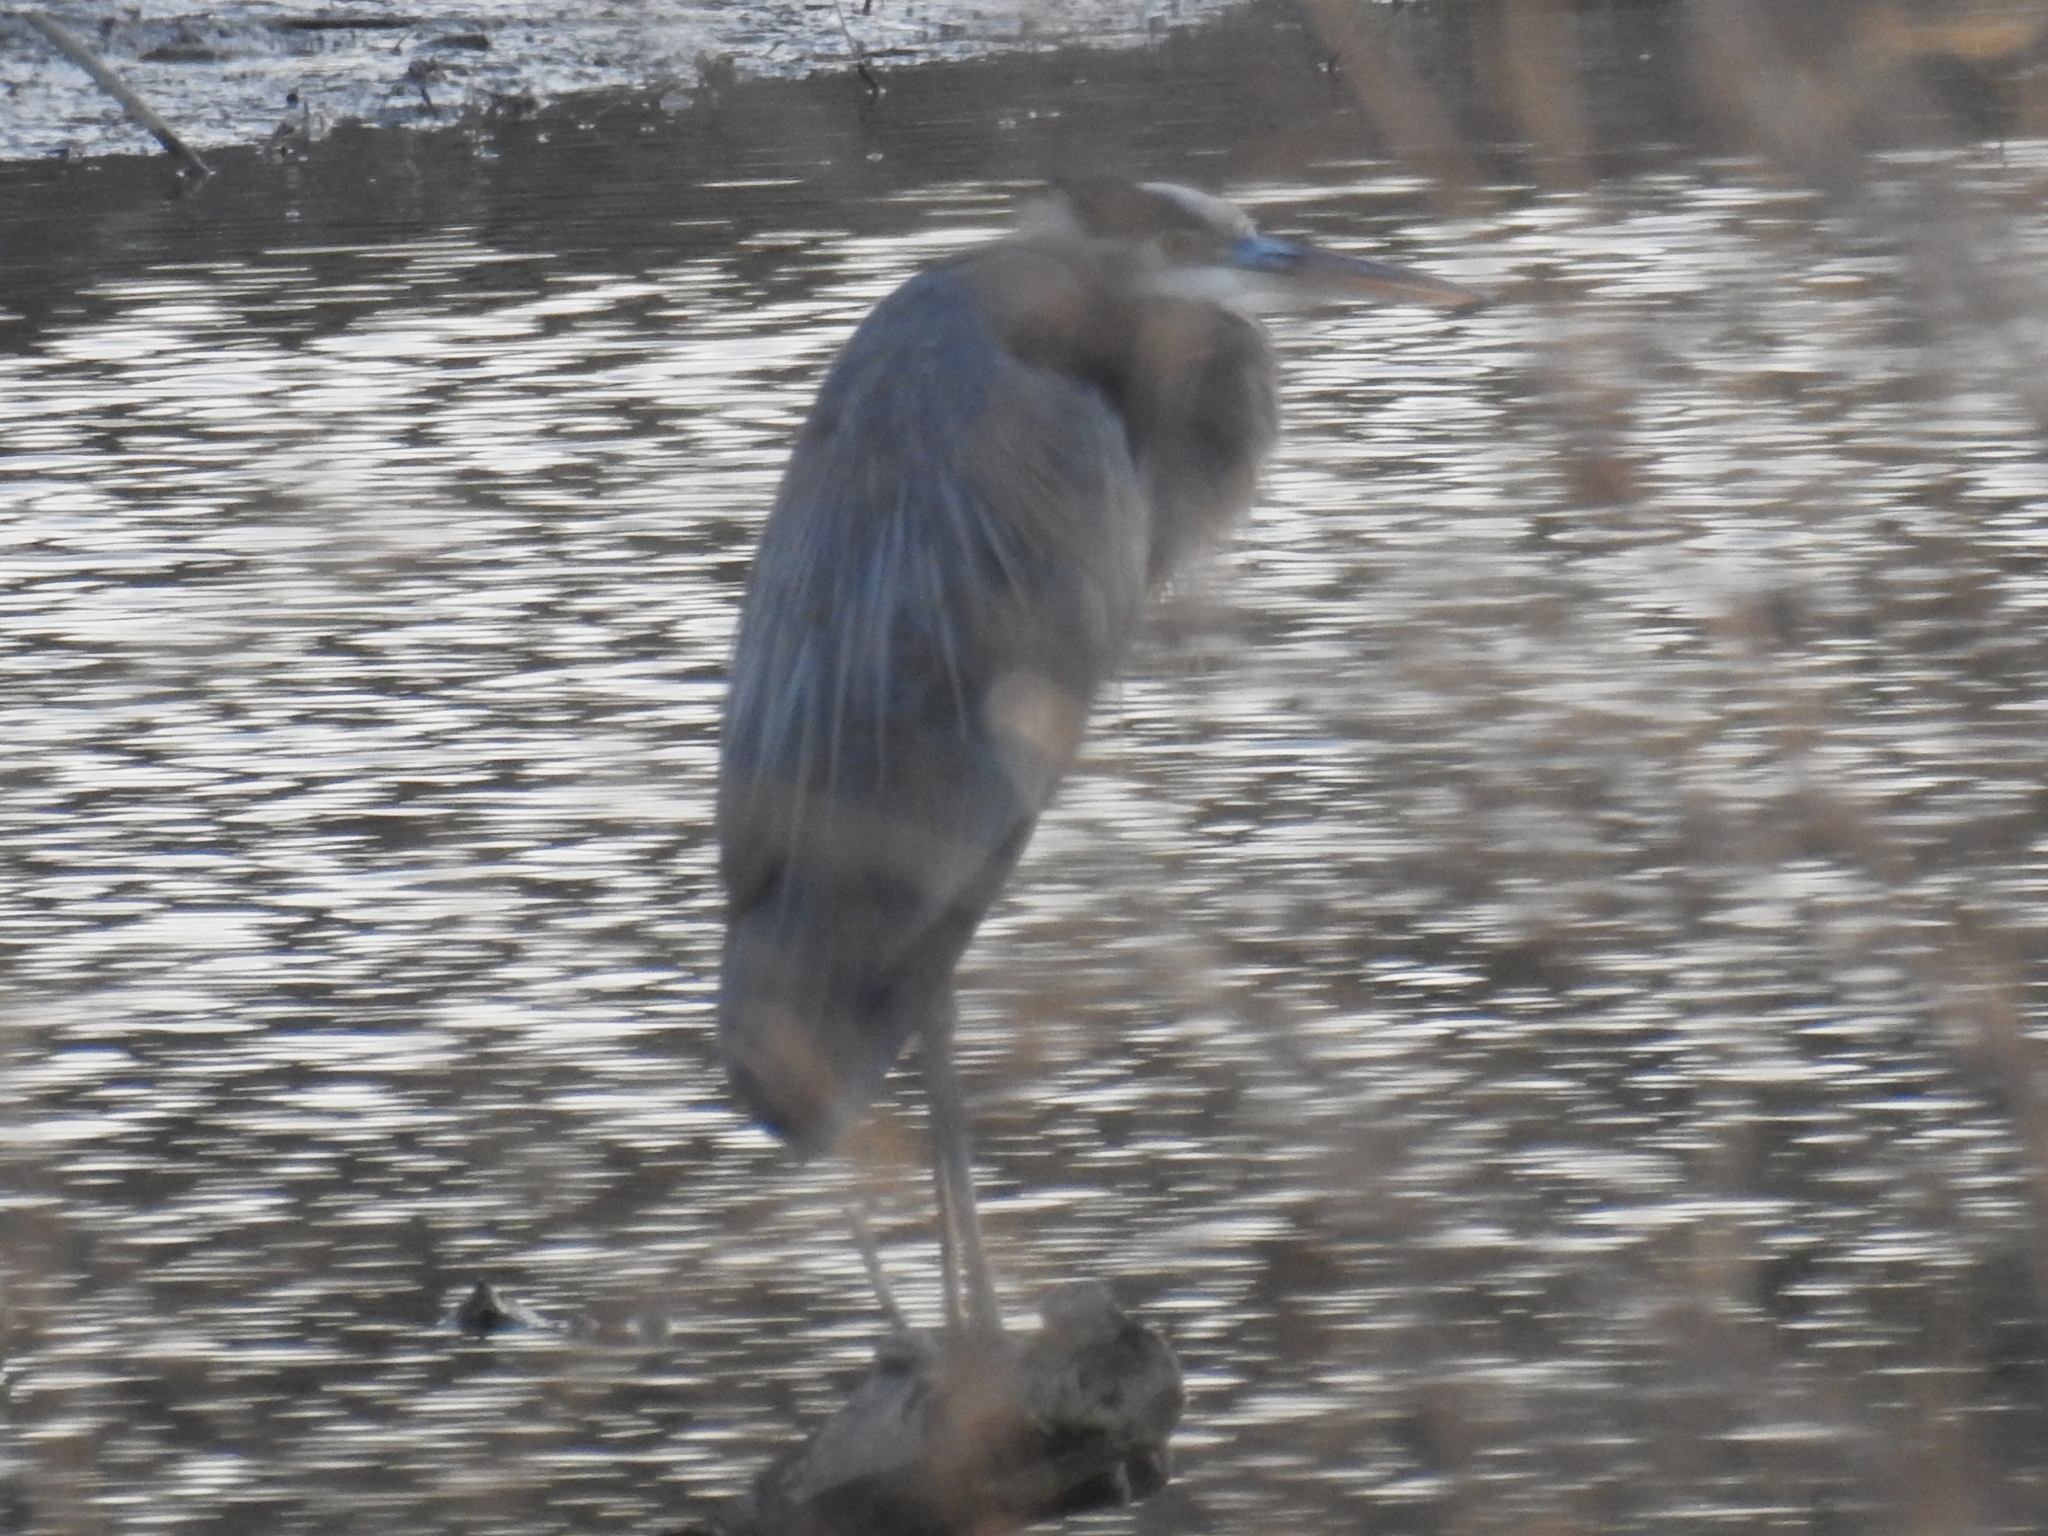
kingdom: Animalia
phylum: Chordata
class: Aves
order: Pelecaniformes
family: Ardeidae
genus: Ardea
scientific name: Ardea herodias
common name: Great blue heron
